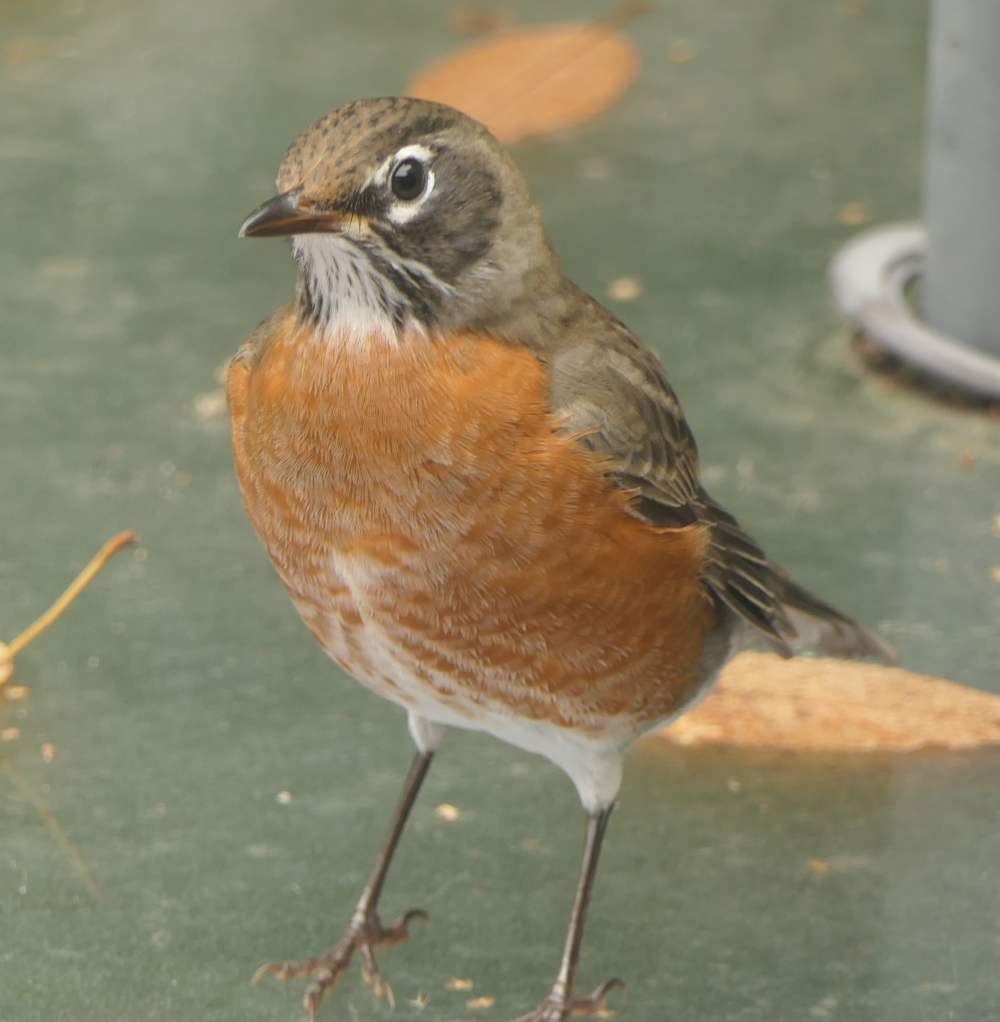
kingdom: Animalia
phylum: Chordata
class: Aves
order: Passeriformes
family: Turdidae
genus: Turdus
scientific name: Turdus migratorius
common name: American robin
